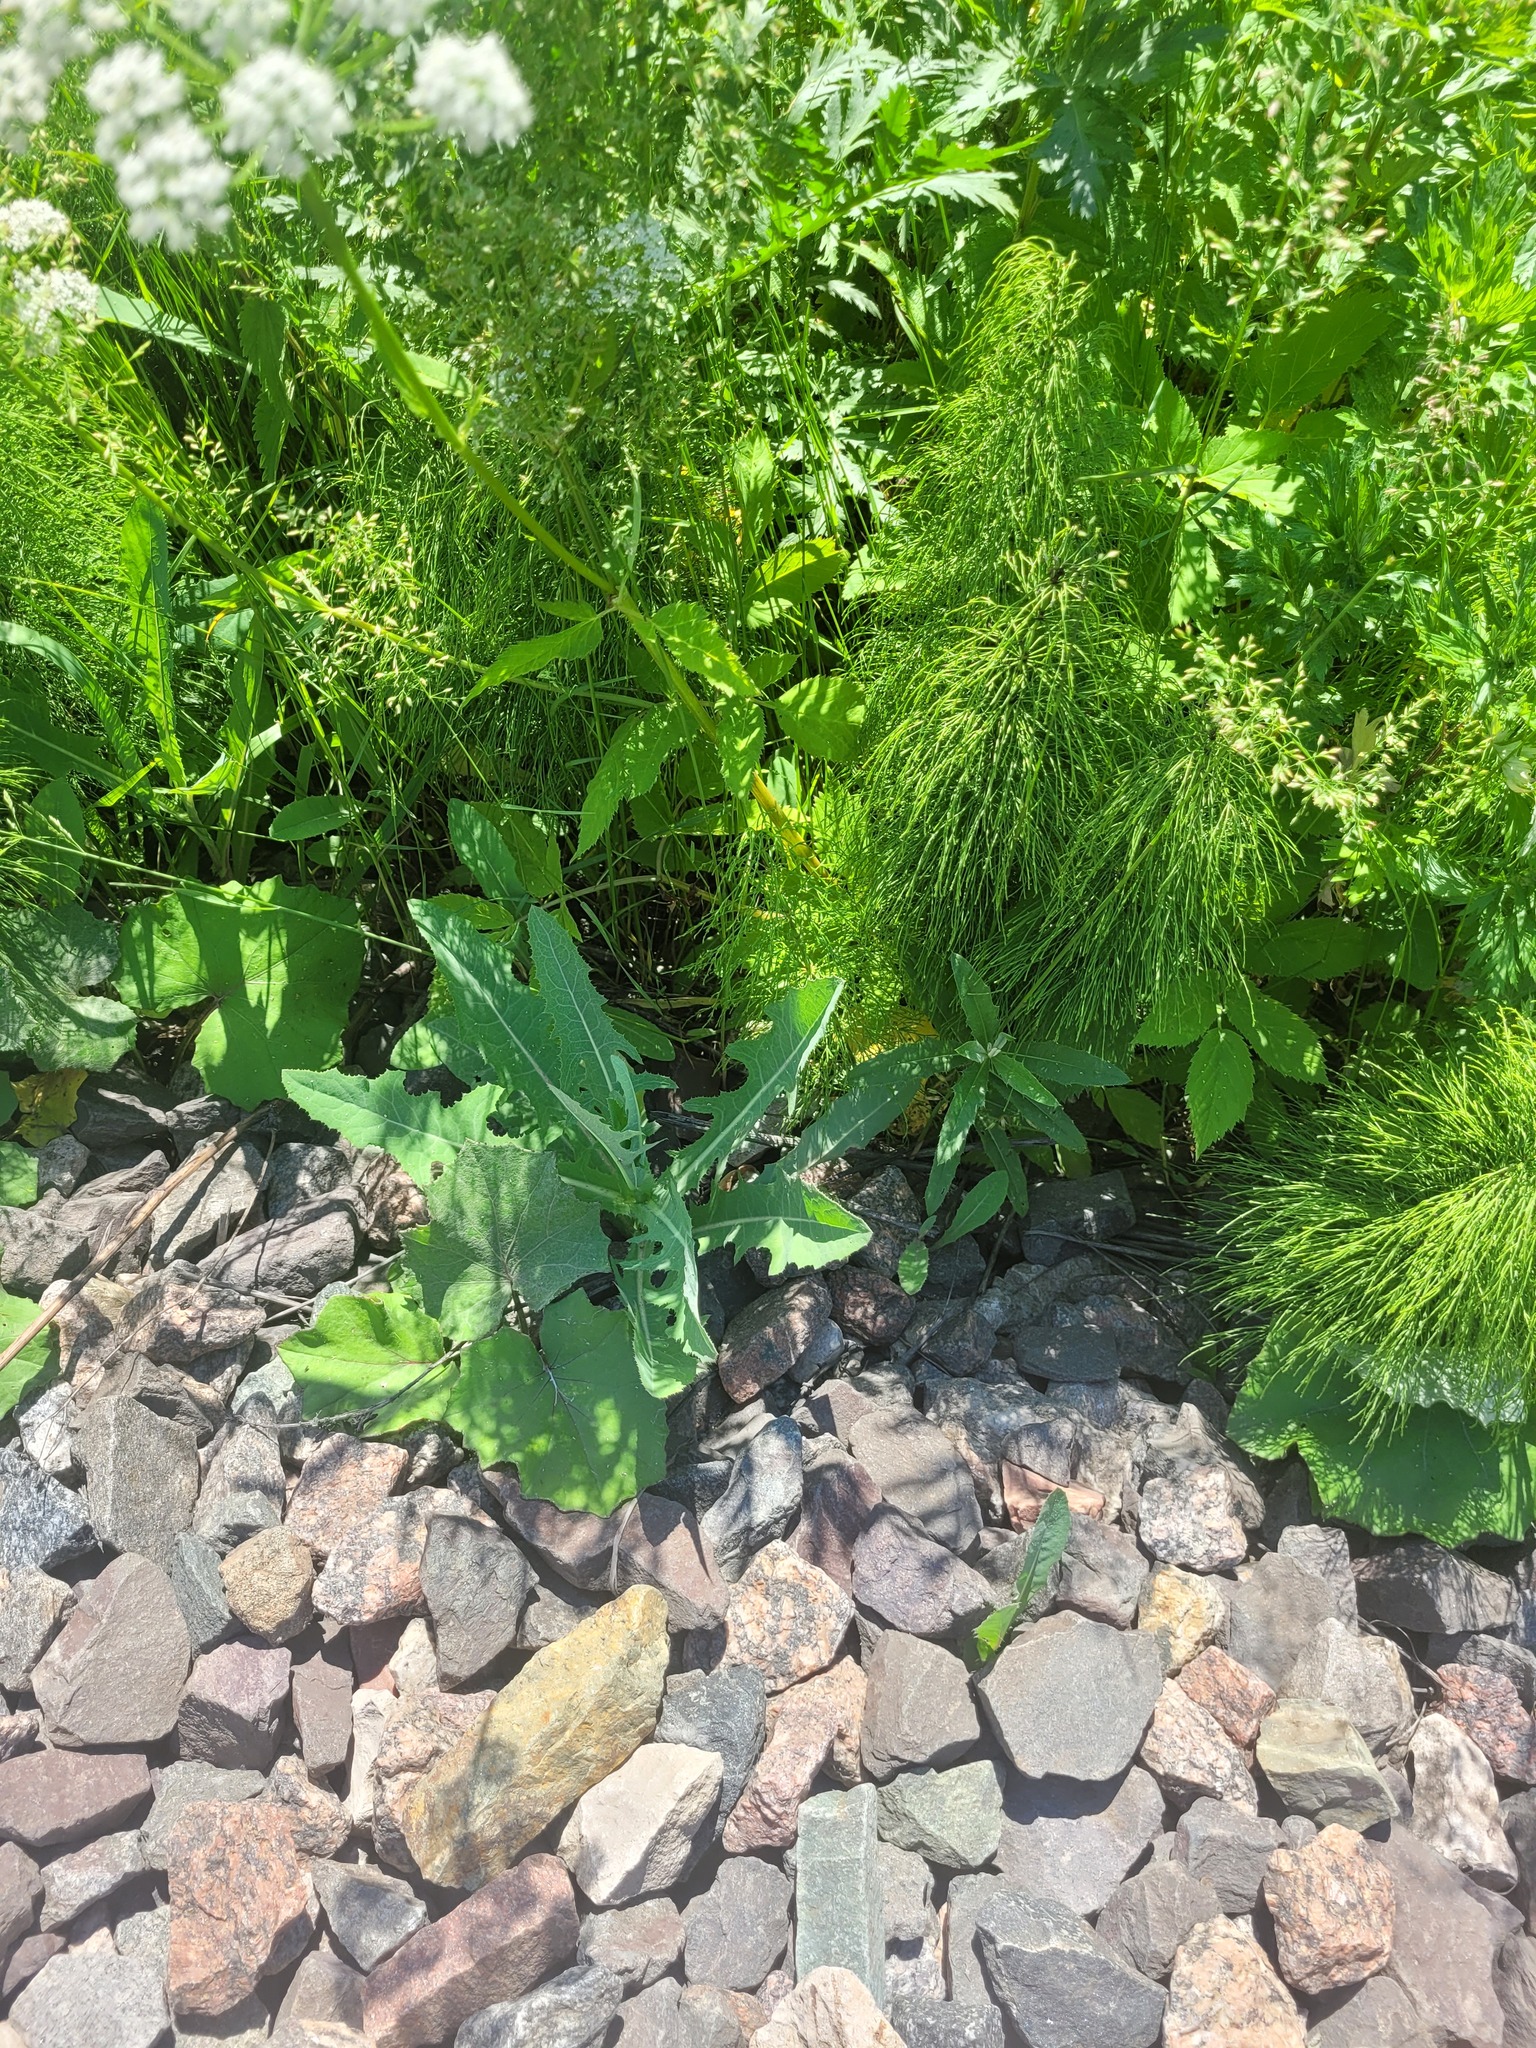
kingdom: Plantae
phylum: Tracheophyta
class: Magnoliopsida
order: Asterales
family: Asteraceae
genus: Sonchus
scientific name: Sonchus arvensis
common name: Perennial sow-thistle
